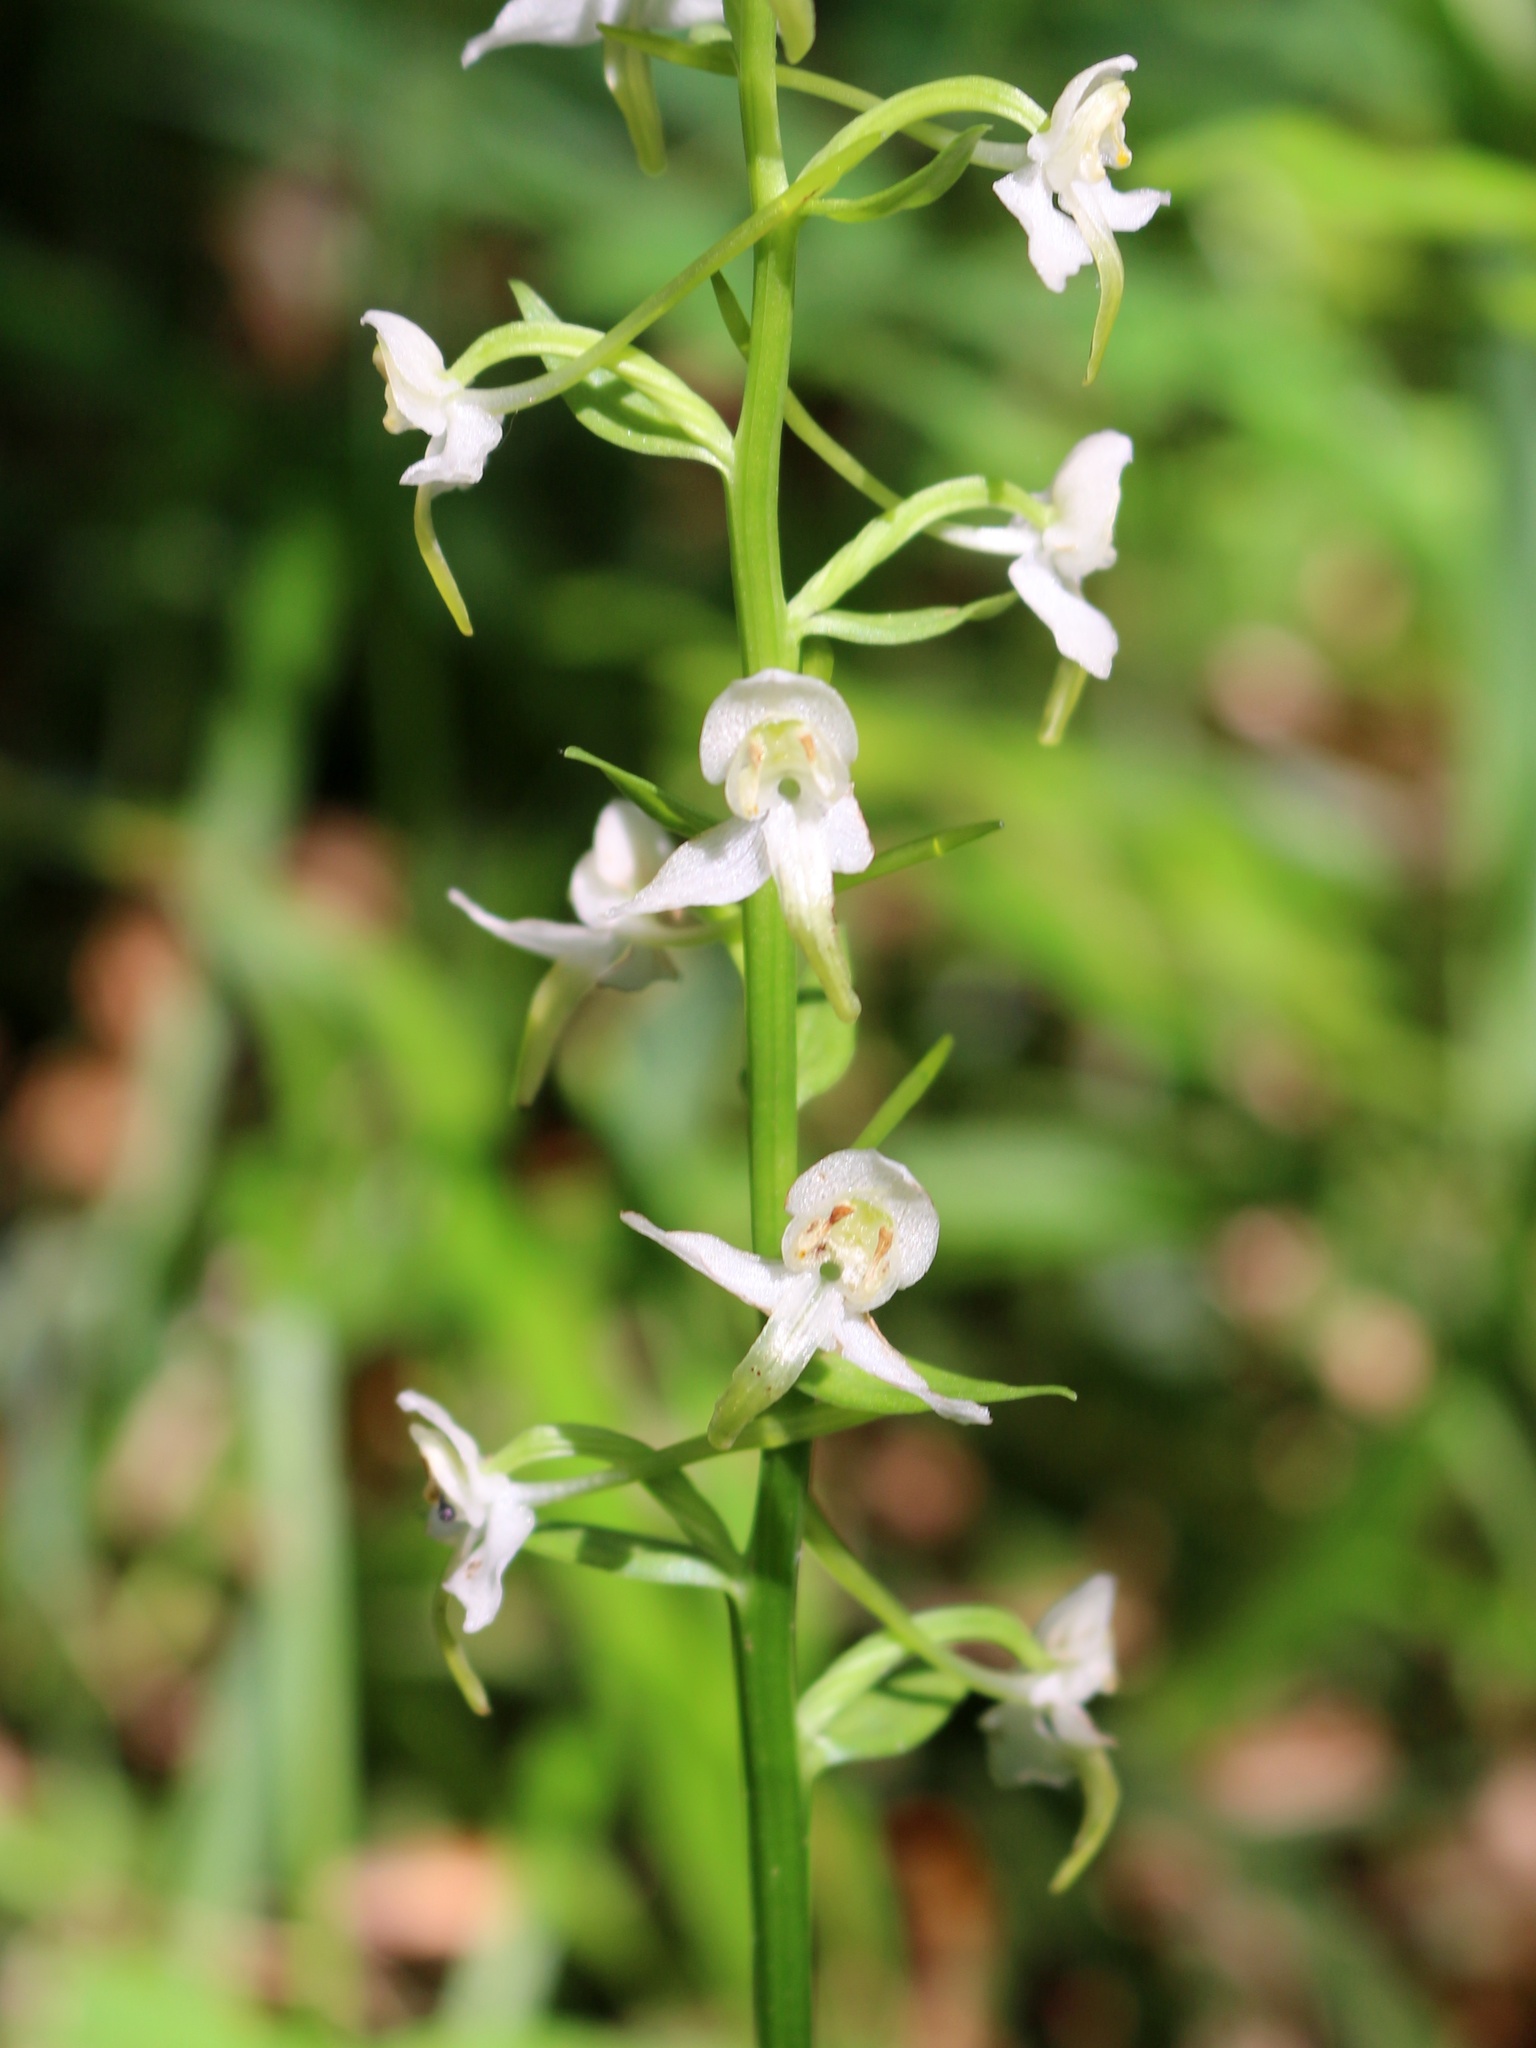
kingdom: Plantae
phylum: Tracheophyta
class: Liliopsida
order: Asparagales
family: Orchidaceae
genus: Platanthera
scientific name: Platanthera chlorantha
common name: Greater butterfly-orchid
